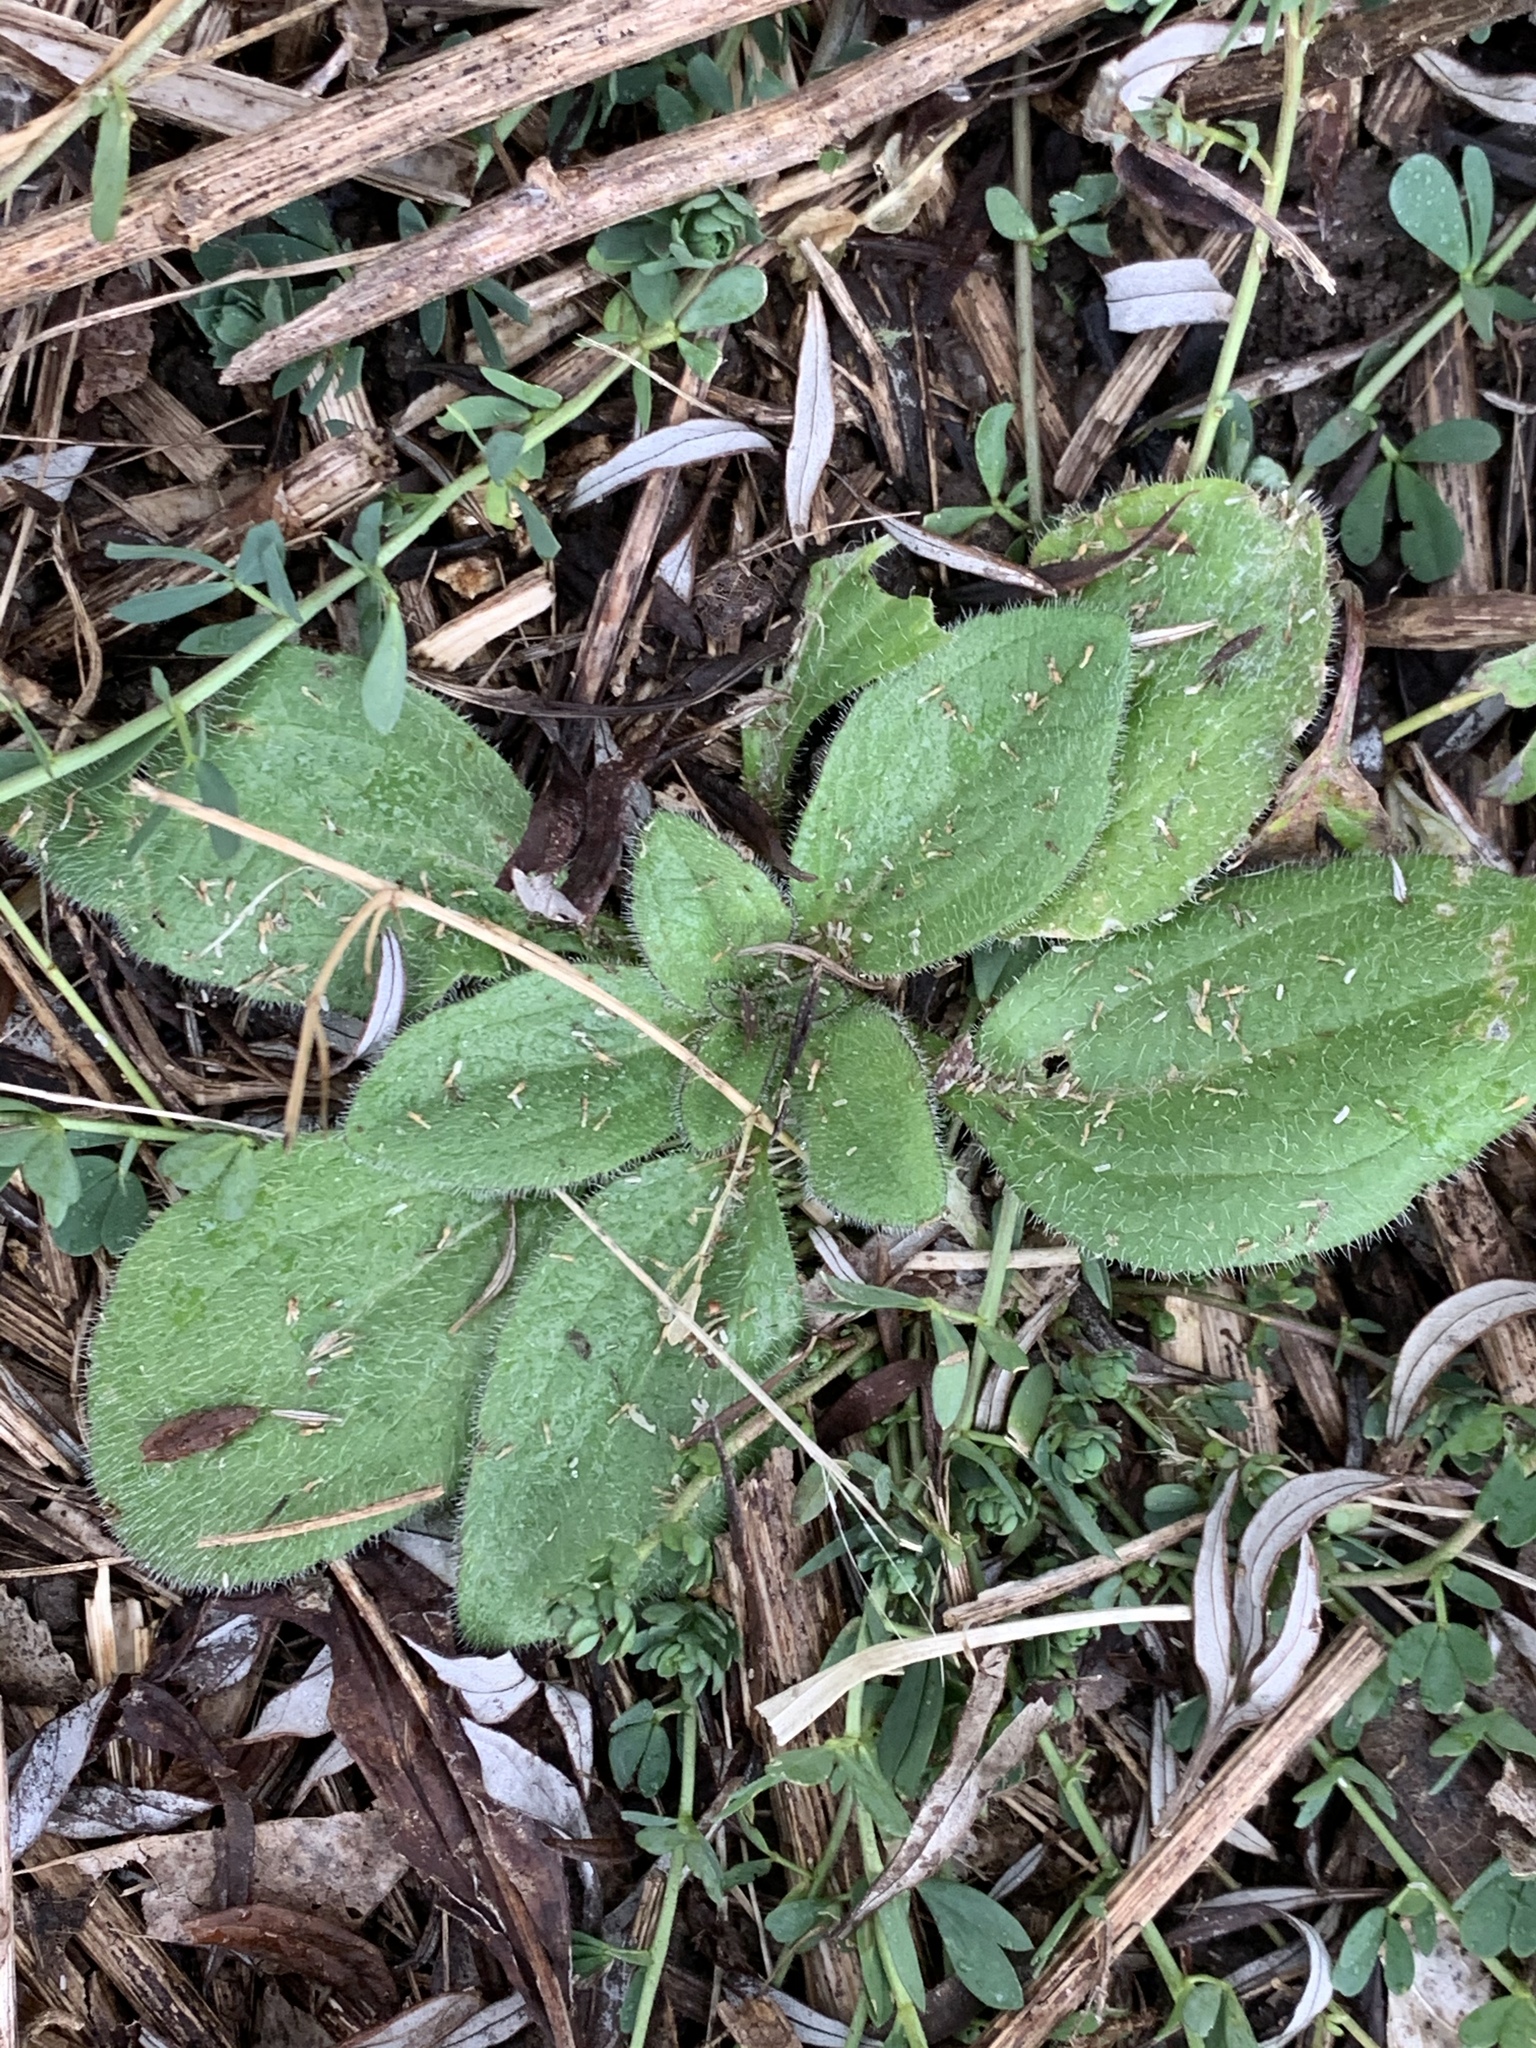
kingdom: Plantae
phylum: Tracheophyta
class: Magnoliopsida
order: Asterales
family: Asteraceae
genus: Rudbeckia
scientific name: Rudbeckia hirta
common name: Black-eyed-susan
